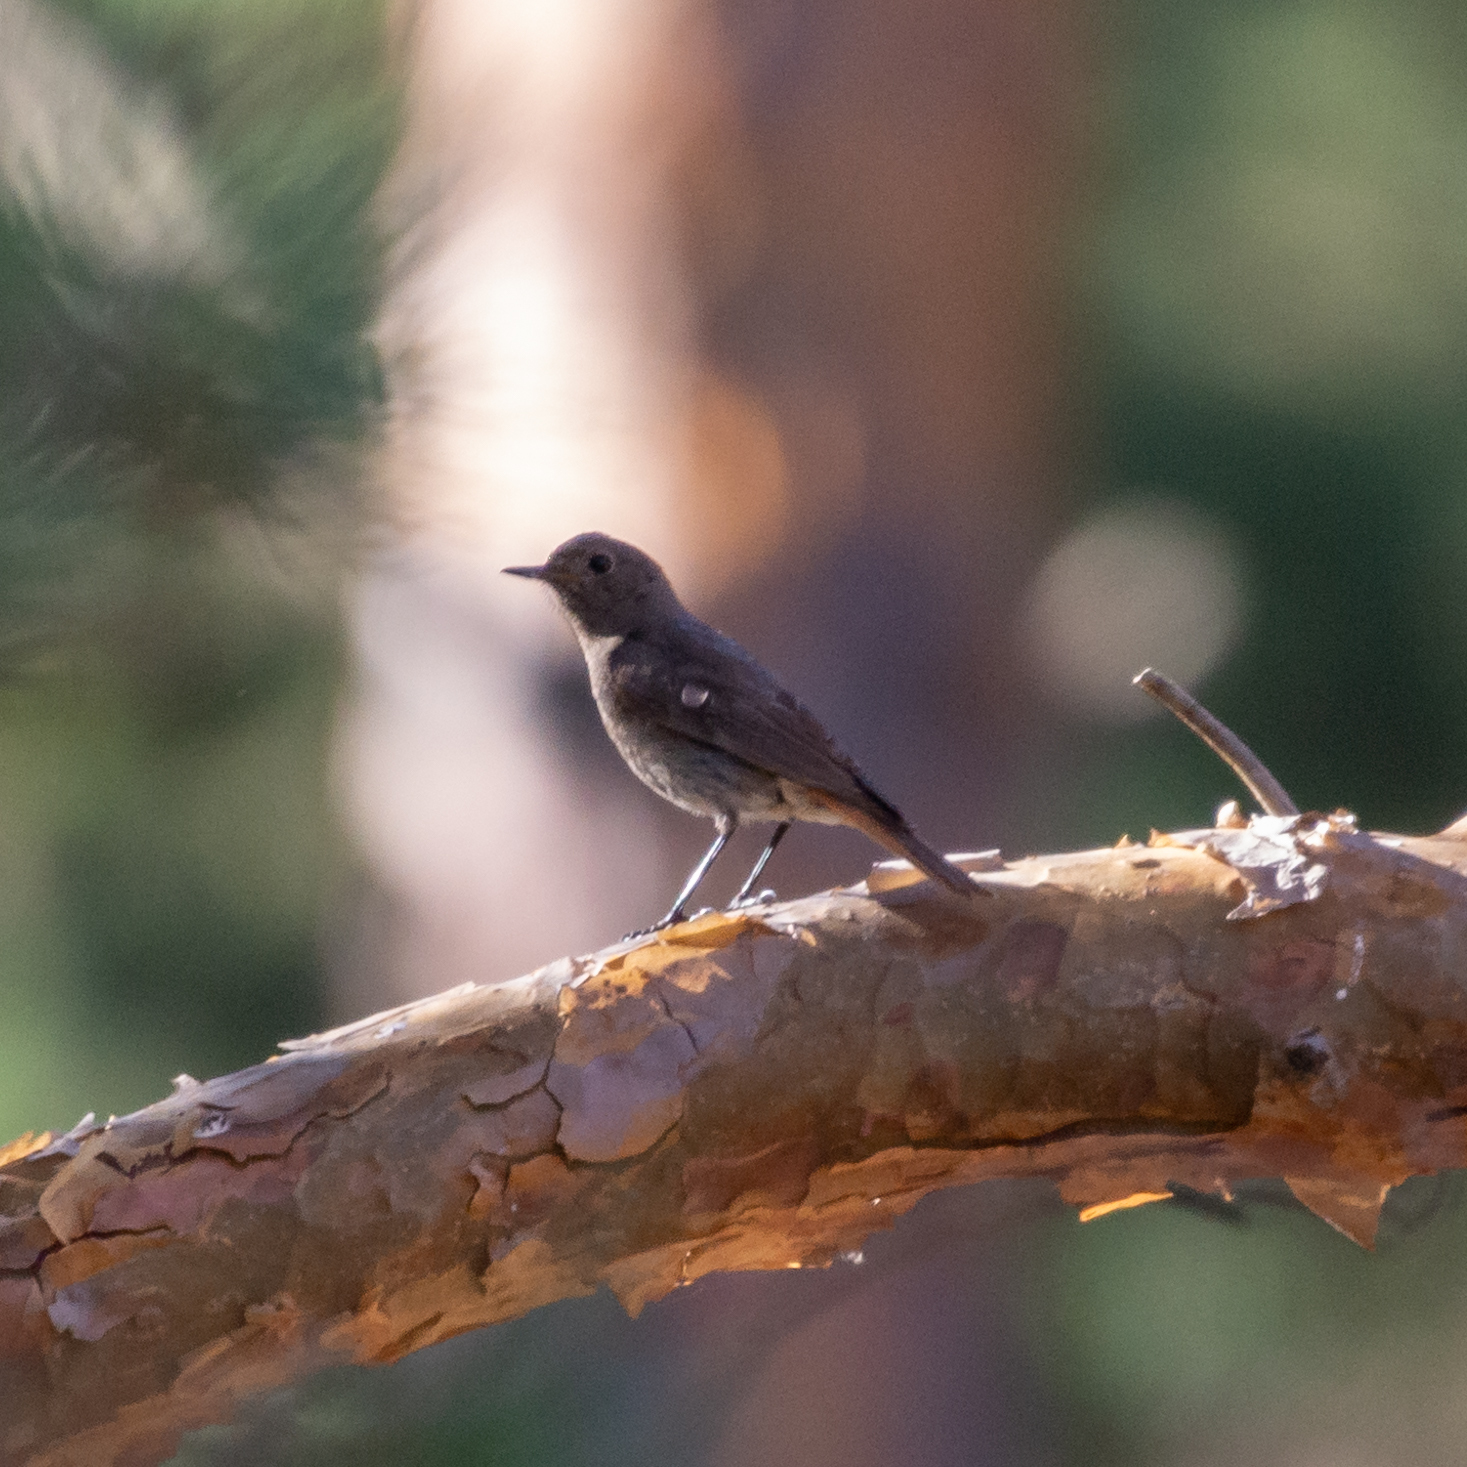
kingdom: Animalia
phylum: Chordata
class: Aves
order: Passeriformes
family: Muscicapidae
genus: Phoenicurus
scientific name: Phoenicurus ochruros
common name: Black redstart
